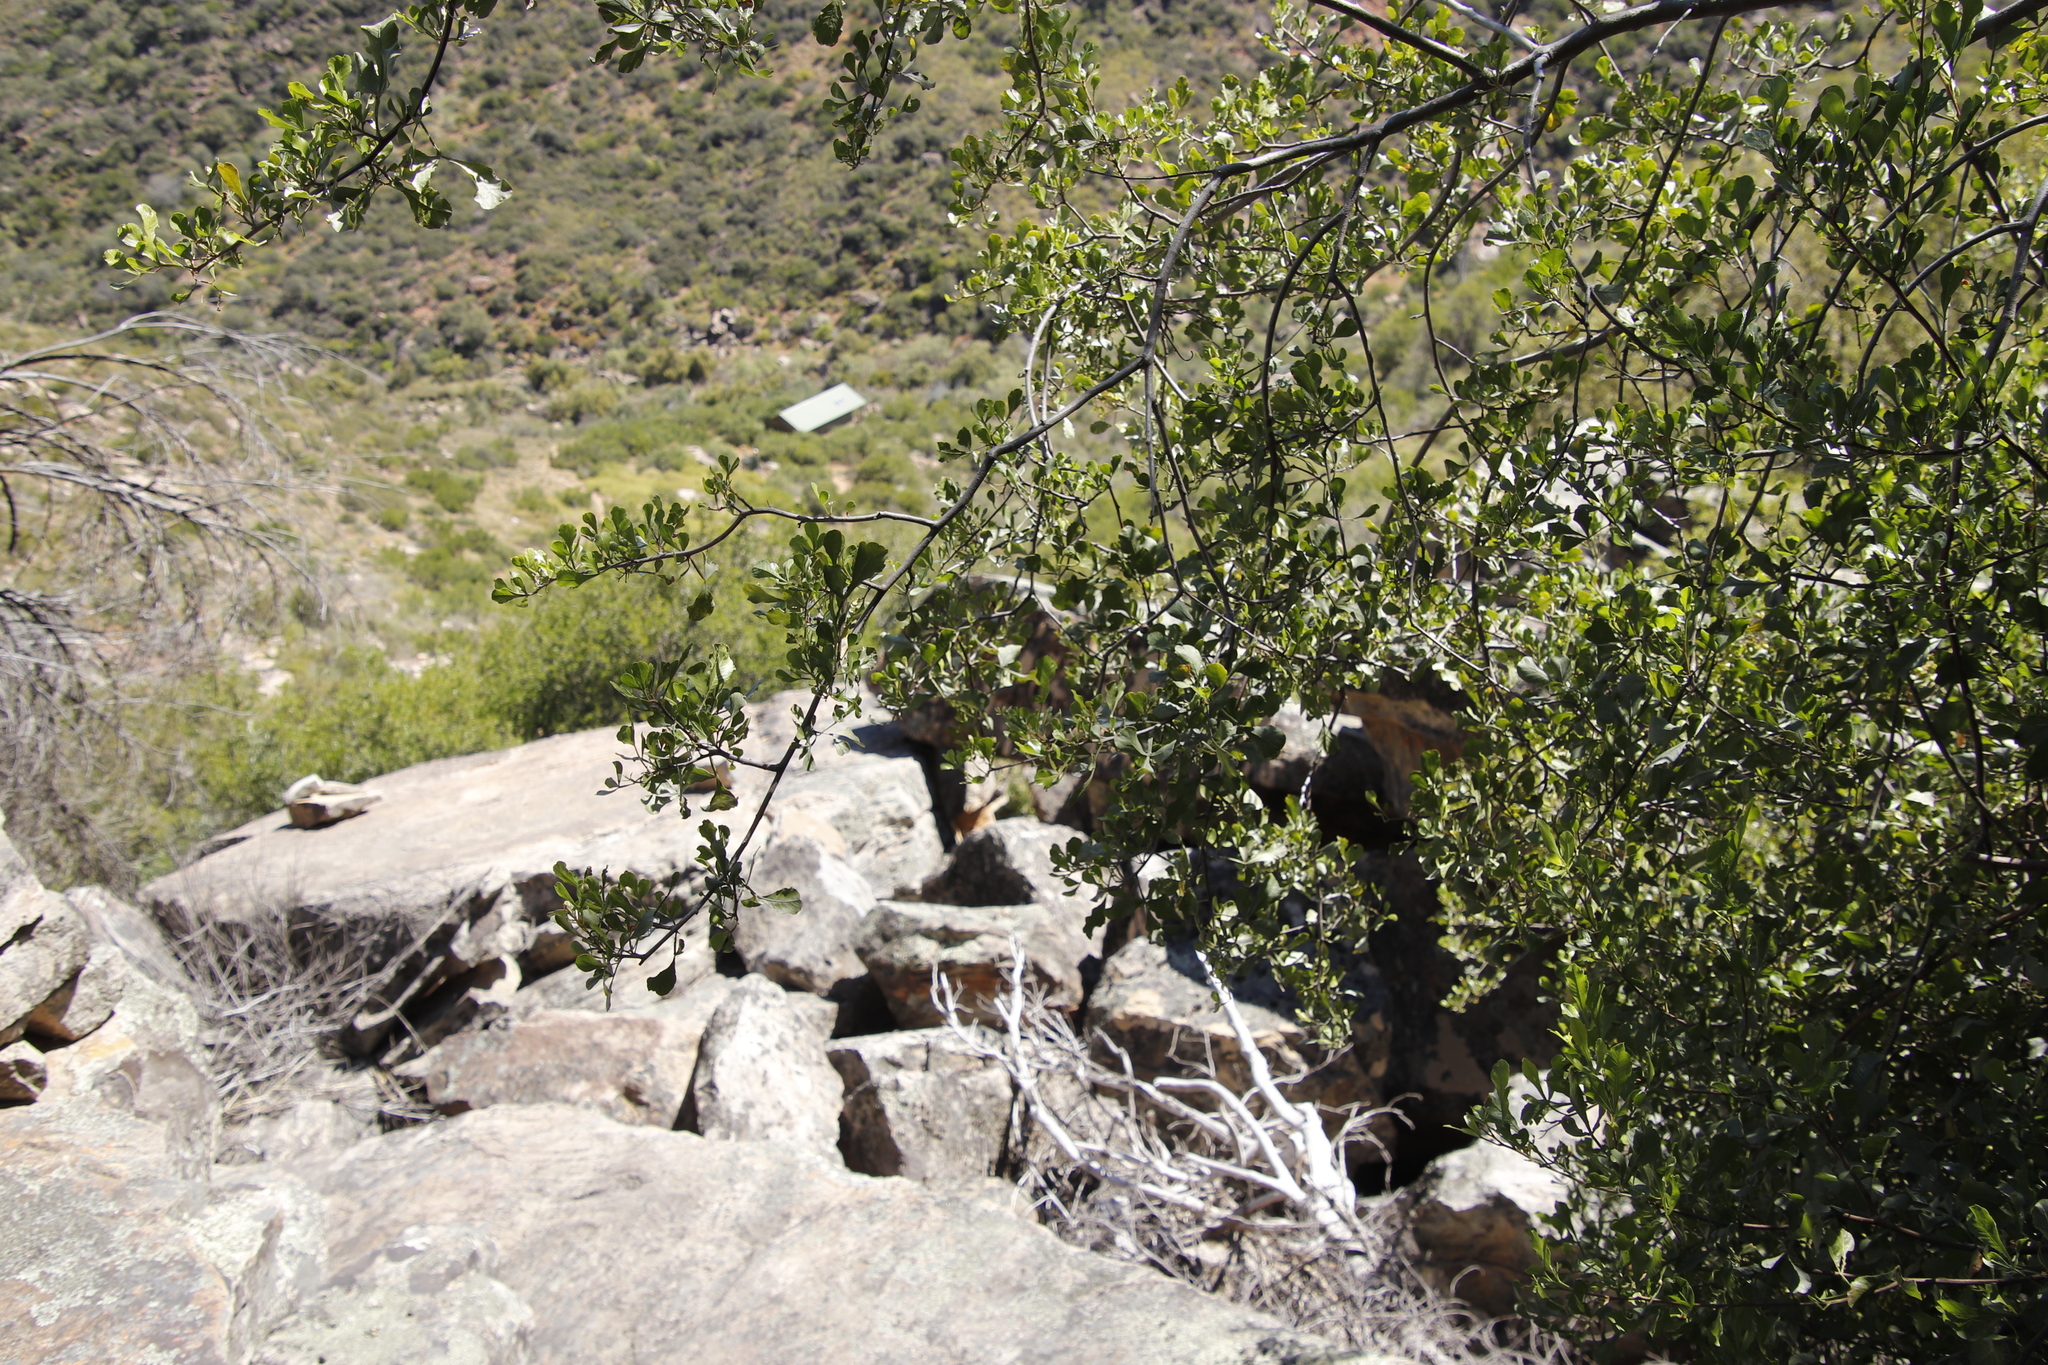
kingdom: Plantae
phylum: Tracheophyta
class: Magnoliopsida
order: Sapindales
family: Anacardiaceae
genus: Searsia
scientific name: Searsia undulata
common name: Namaqua kunibush
